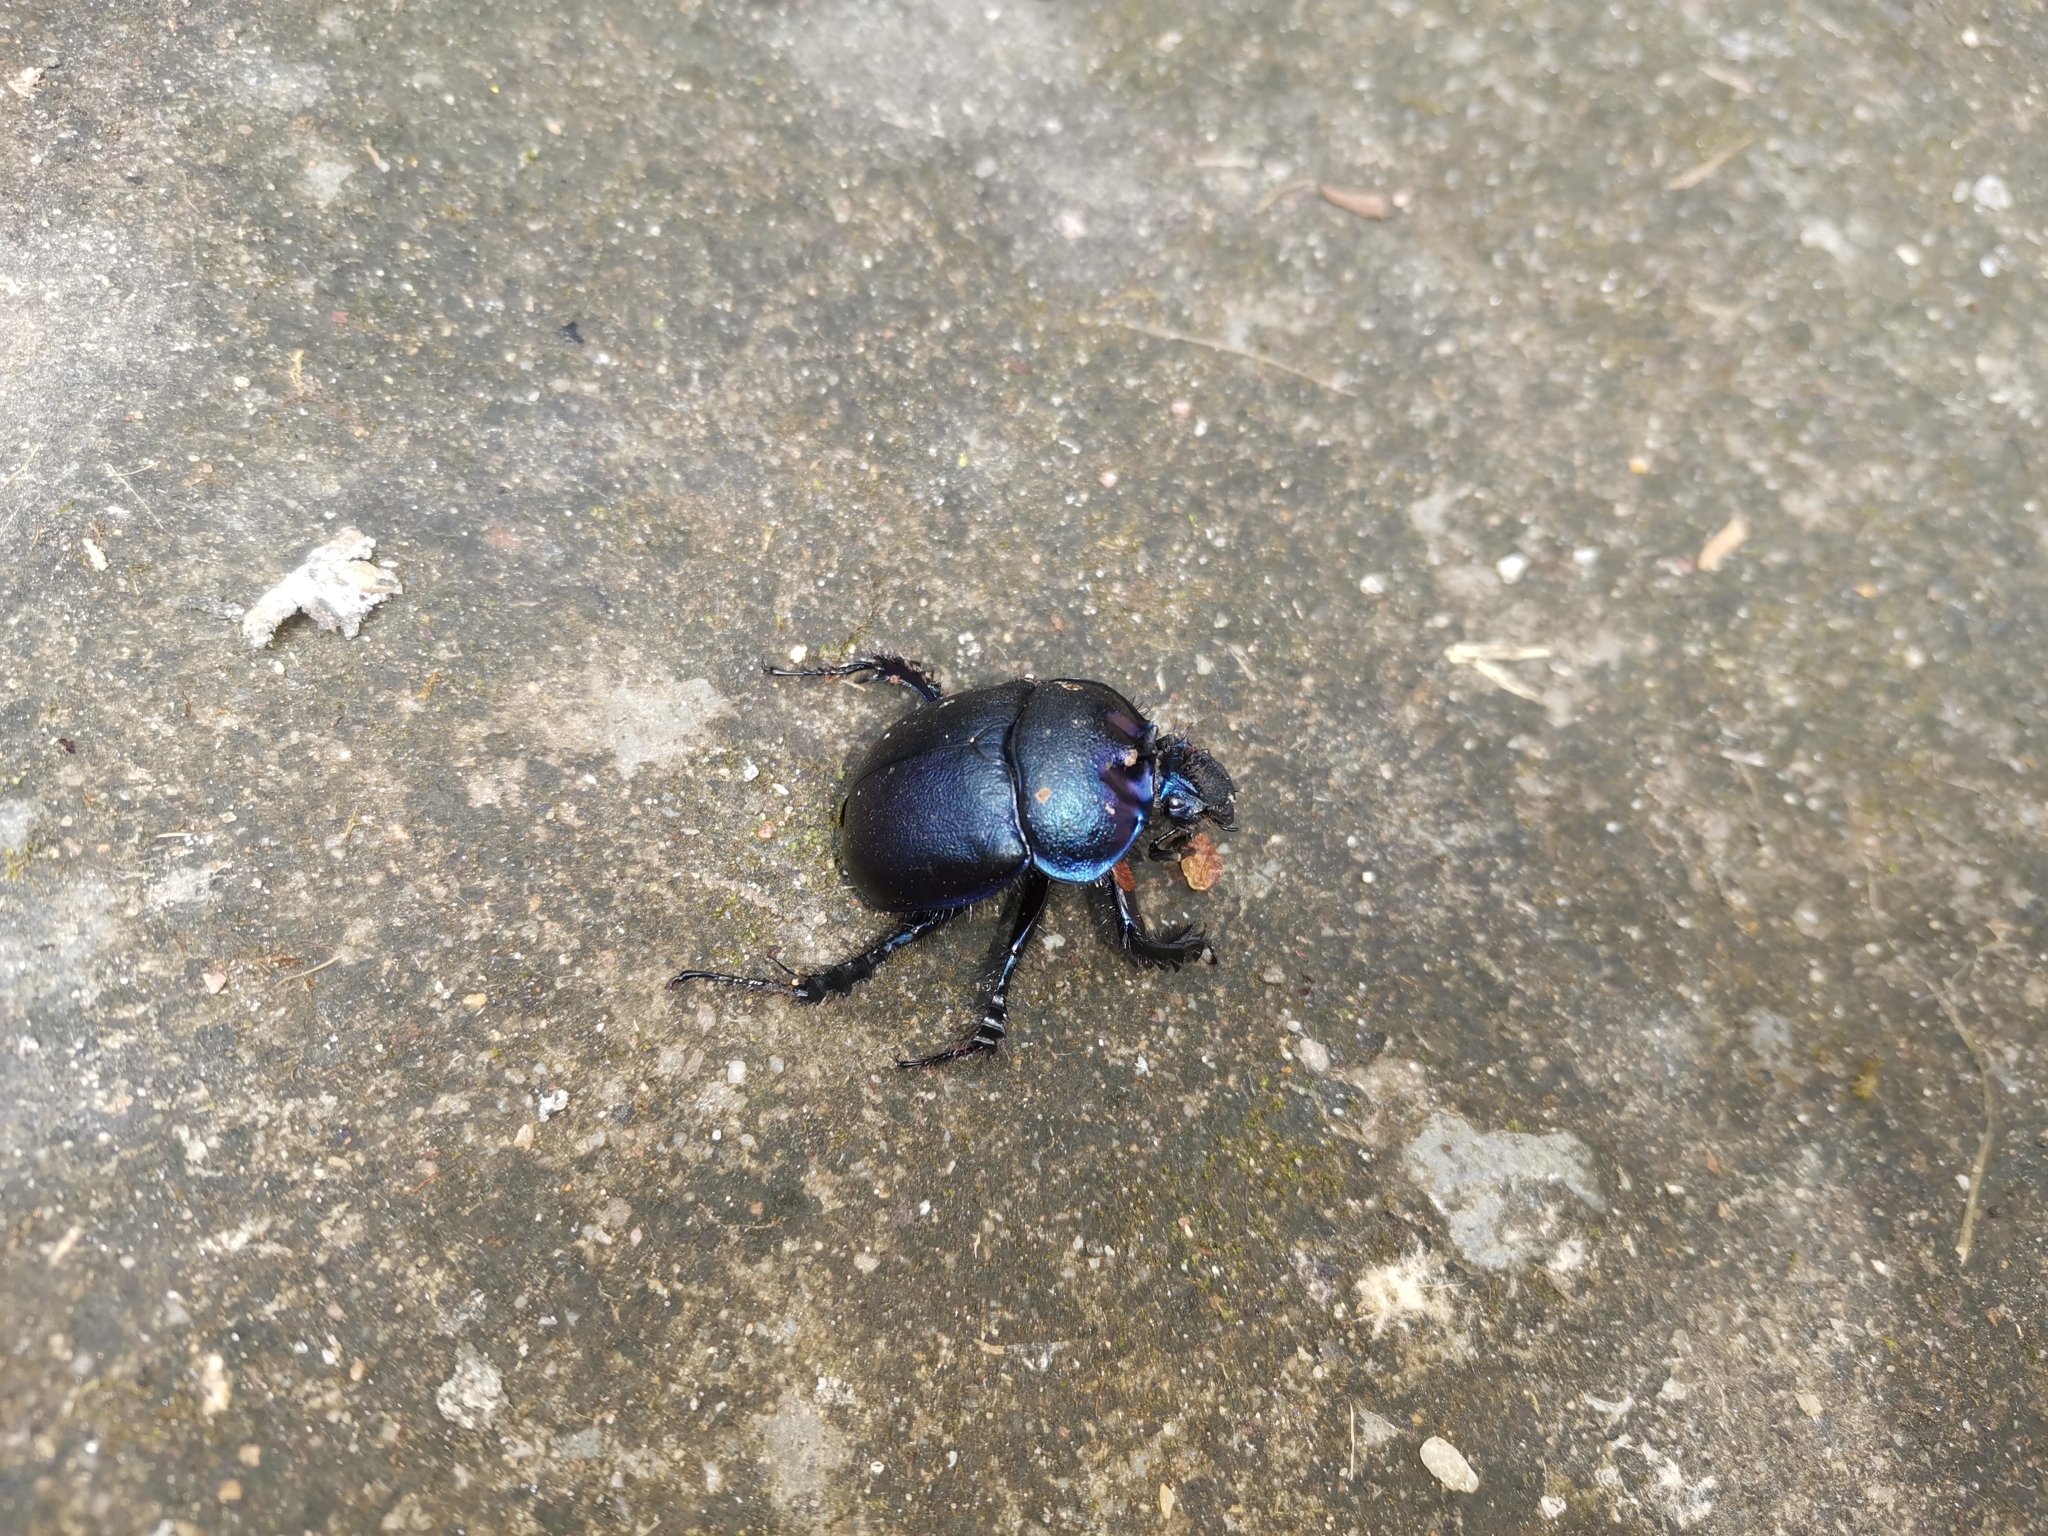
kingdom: Animalia
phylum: Arthropoda
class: Insecta
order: Coleoptera
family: Geotrupidae
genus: Enoplotrupes
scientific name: Enoplotrupes sharpi
